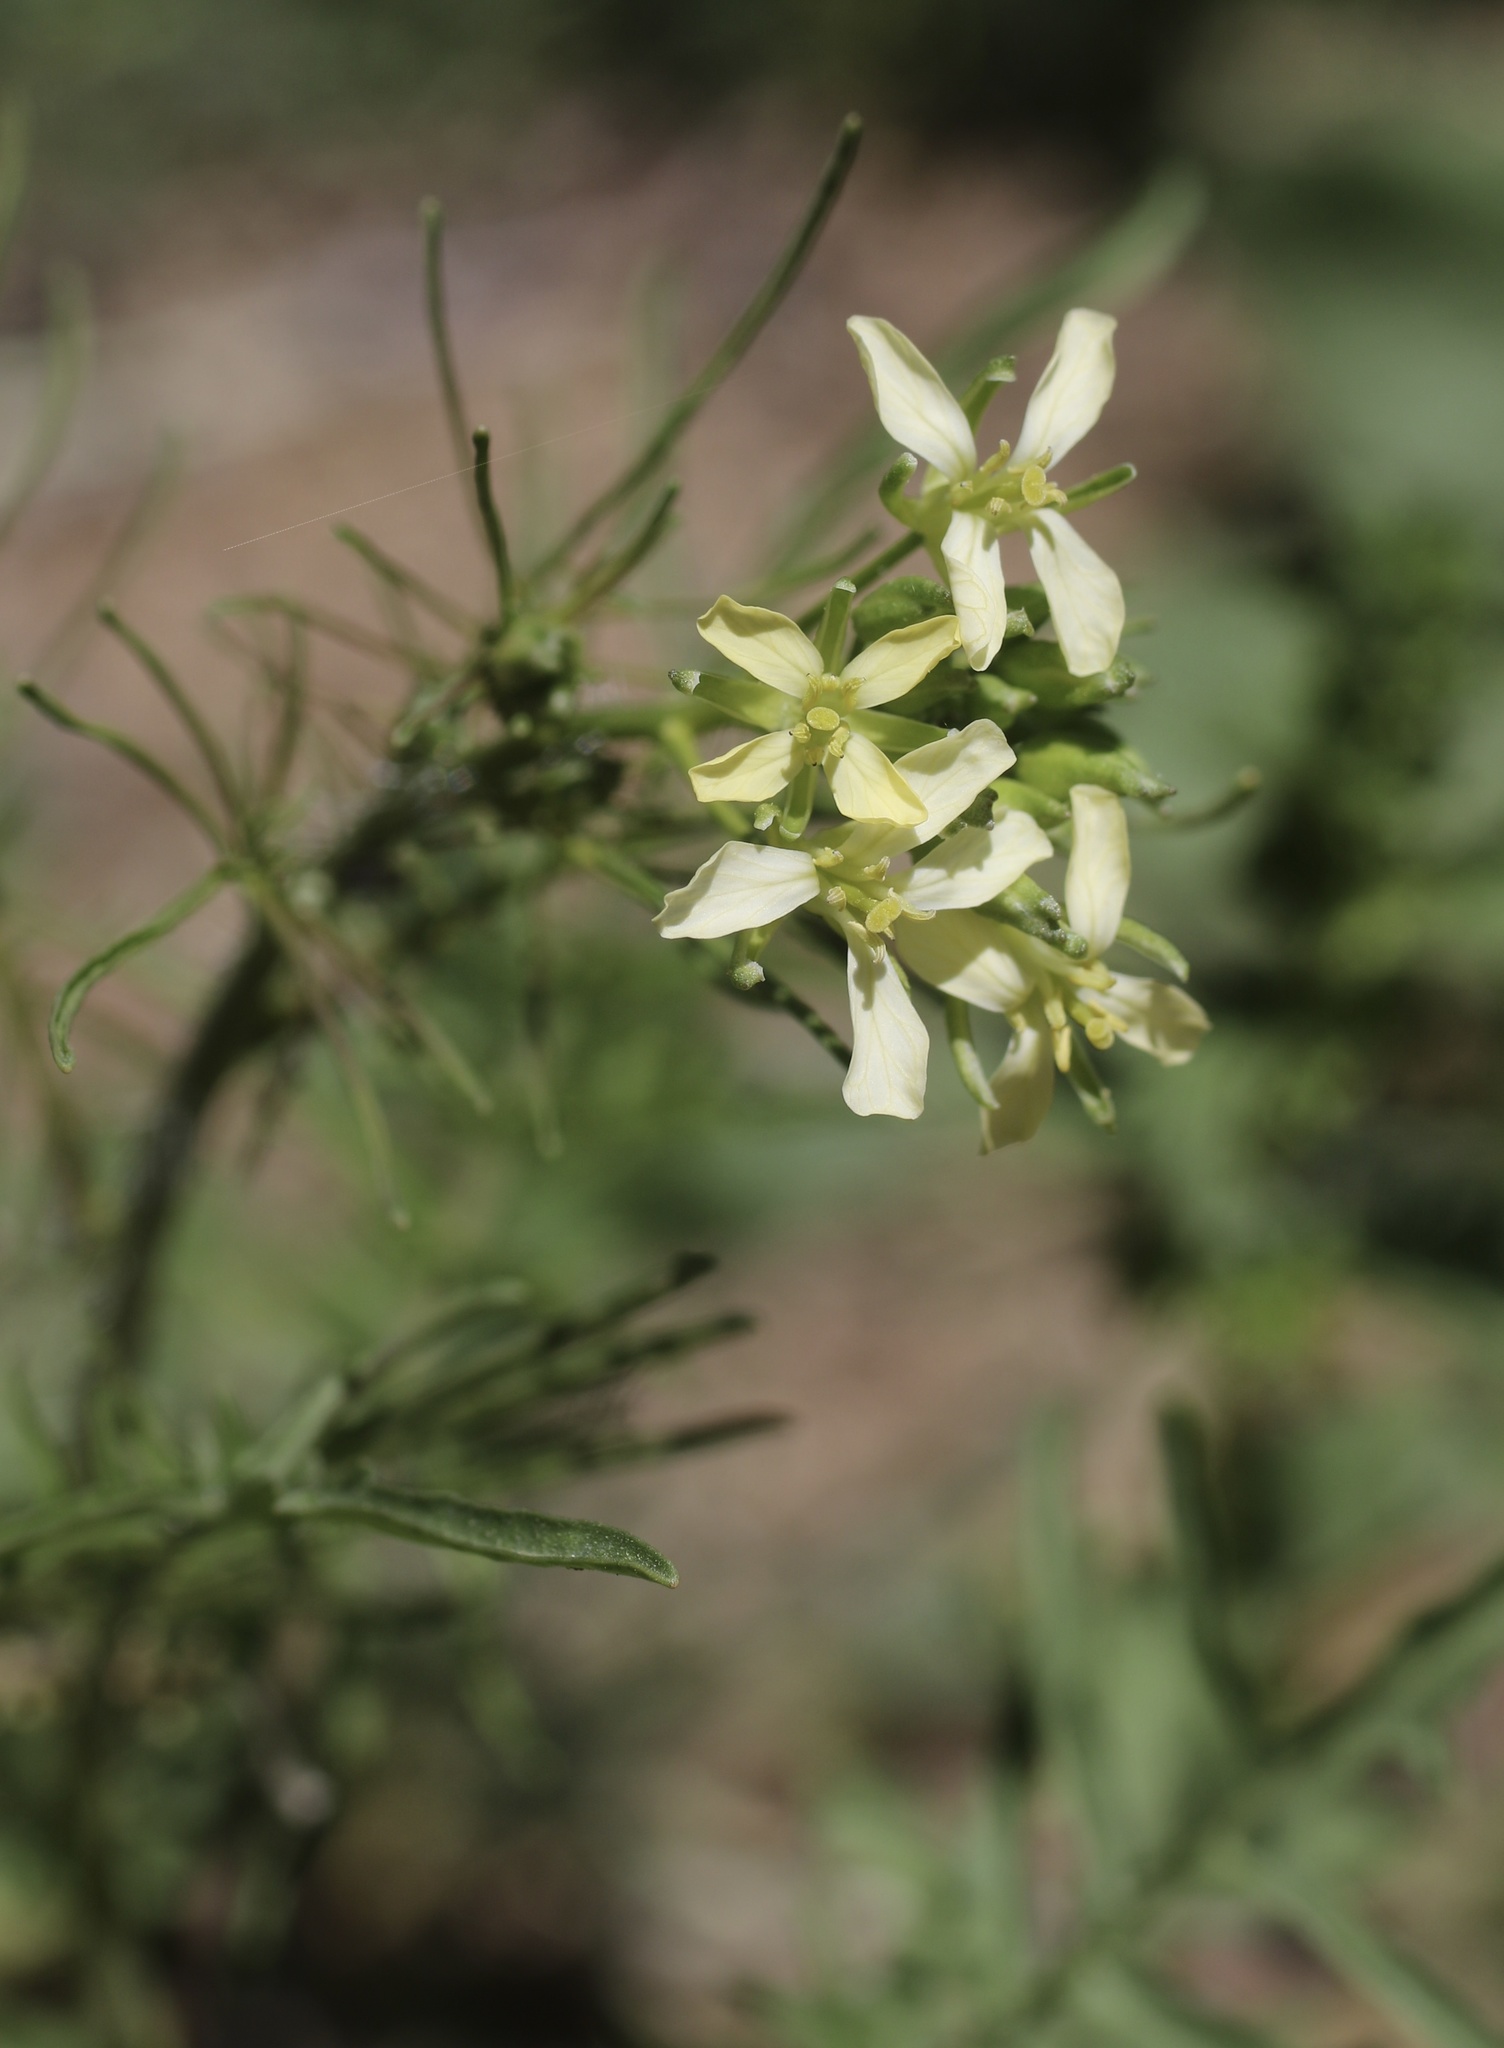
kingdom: Plantae
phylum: Tracheophyta
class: Magnoliopsida
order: Brassicales
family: Brassicaceae
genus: Sisymbrium
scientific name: Sisymbrium altissimum
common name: Tall rocket
